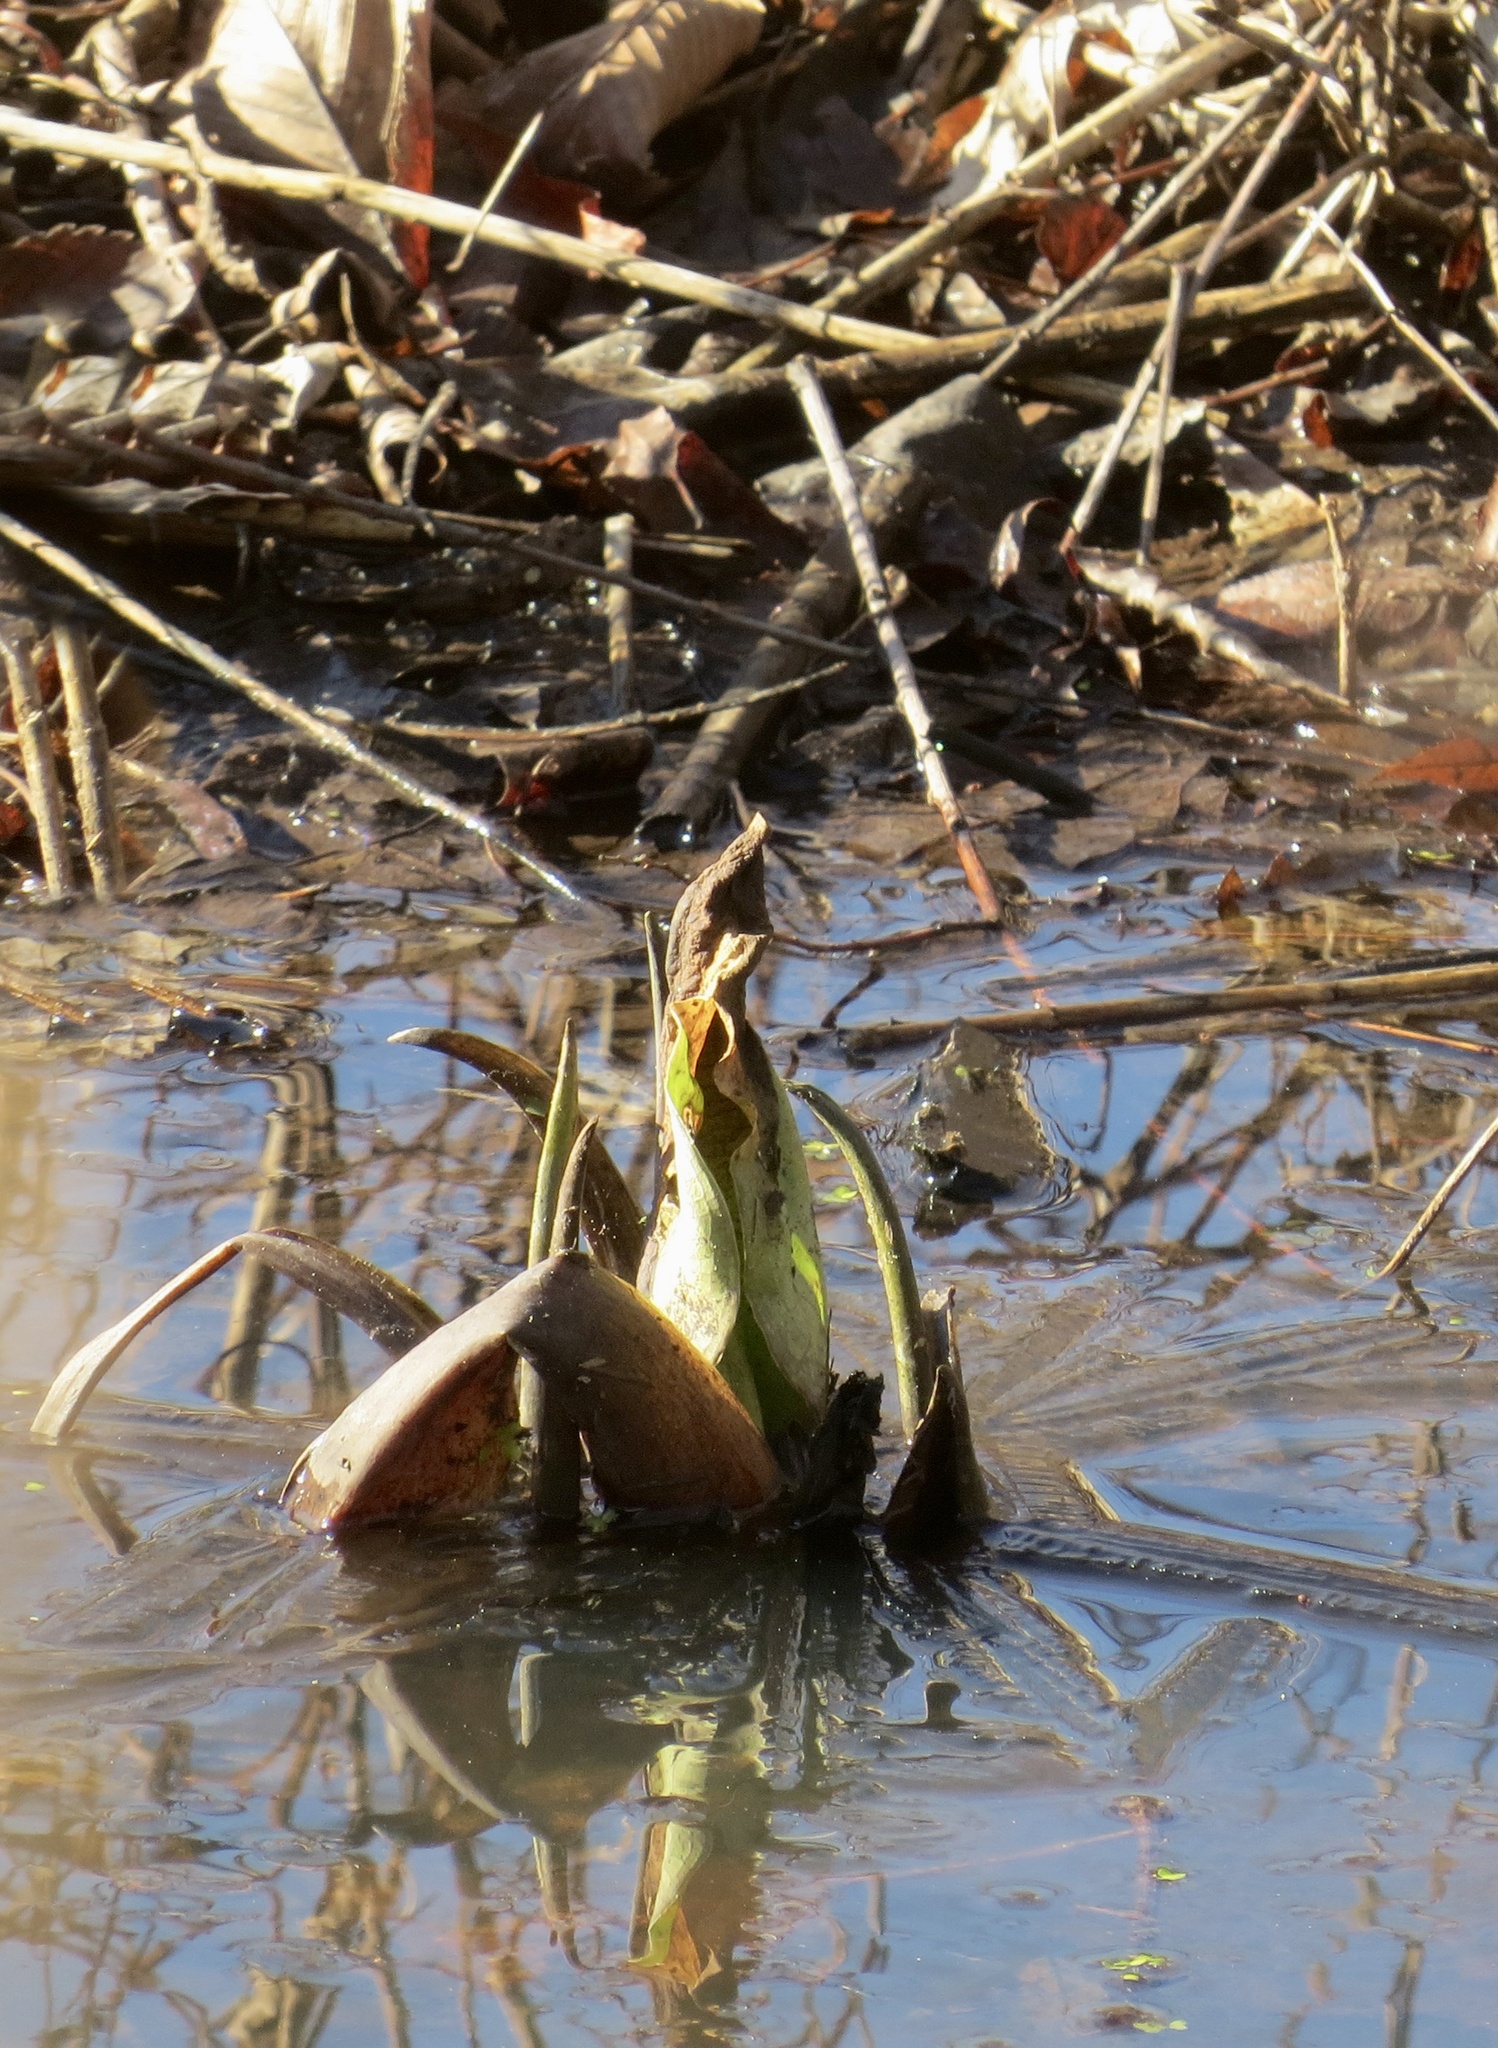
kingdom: Plantae
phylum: Tracheophyta
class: Liliopsida
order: Alismatales
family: Araceae
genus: Symplocarpus
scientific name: Symplocarpus foetidus
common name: Eastern skunk cabbage
